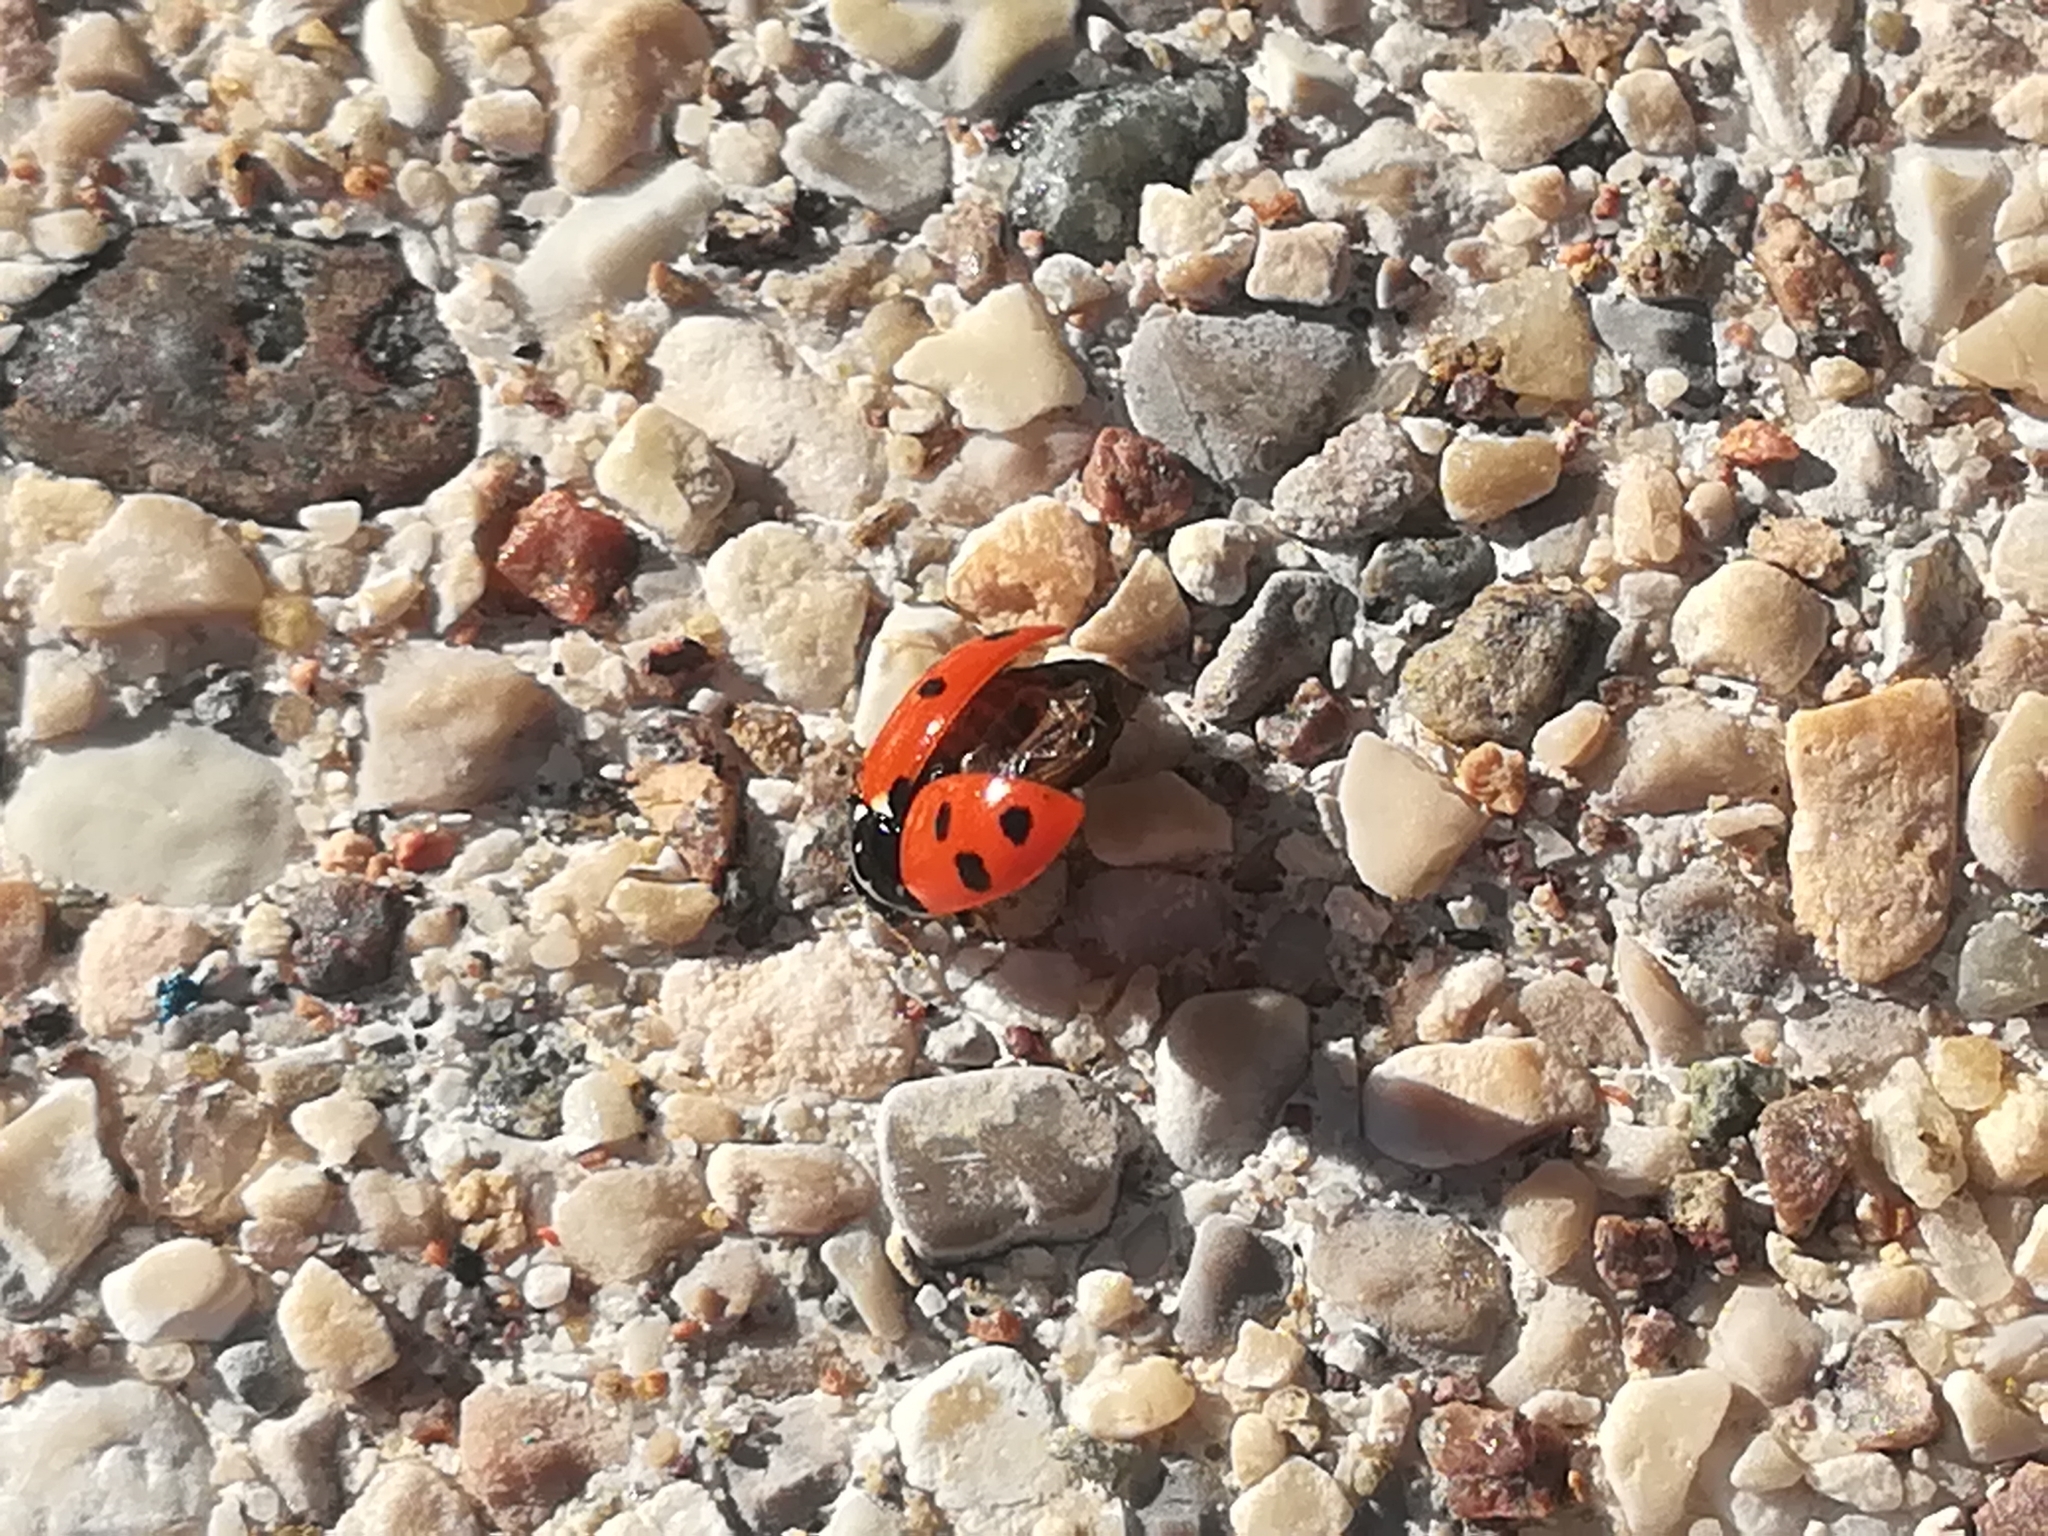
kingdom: Animalia
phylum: Arthropoda
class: Insecta
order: Coleoptera
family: Coccinellidae
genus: Hippodamia
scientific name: Hippodamia variegata
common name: Ladybird beetle
